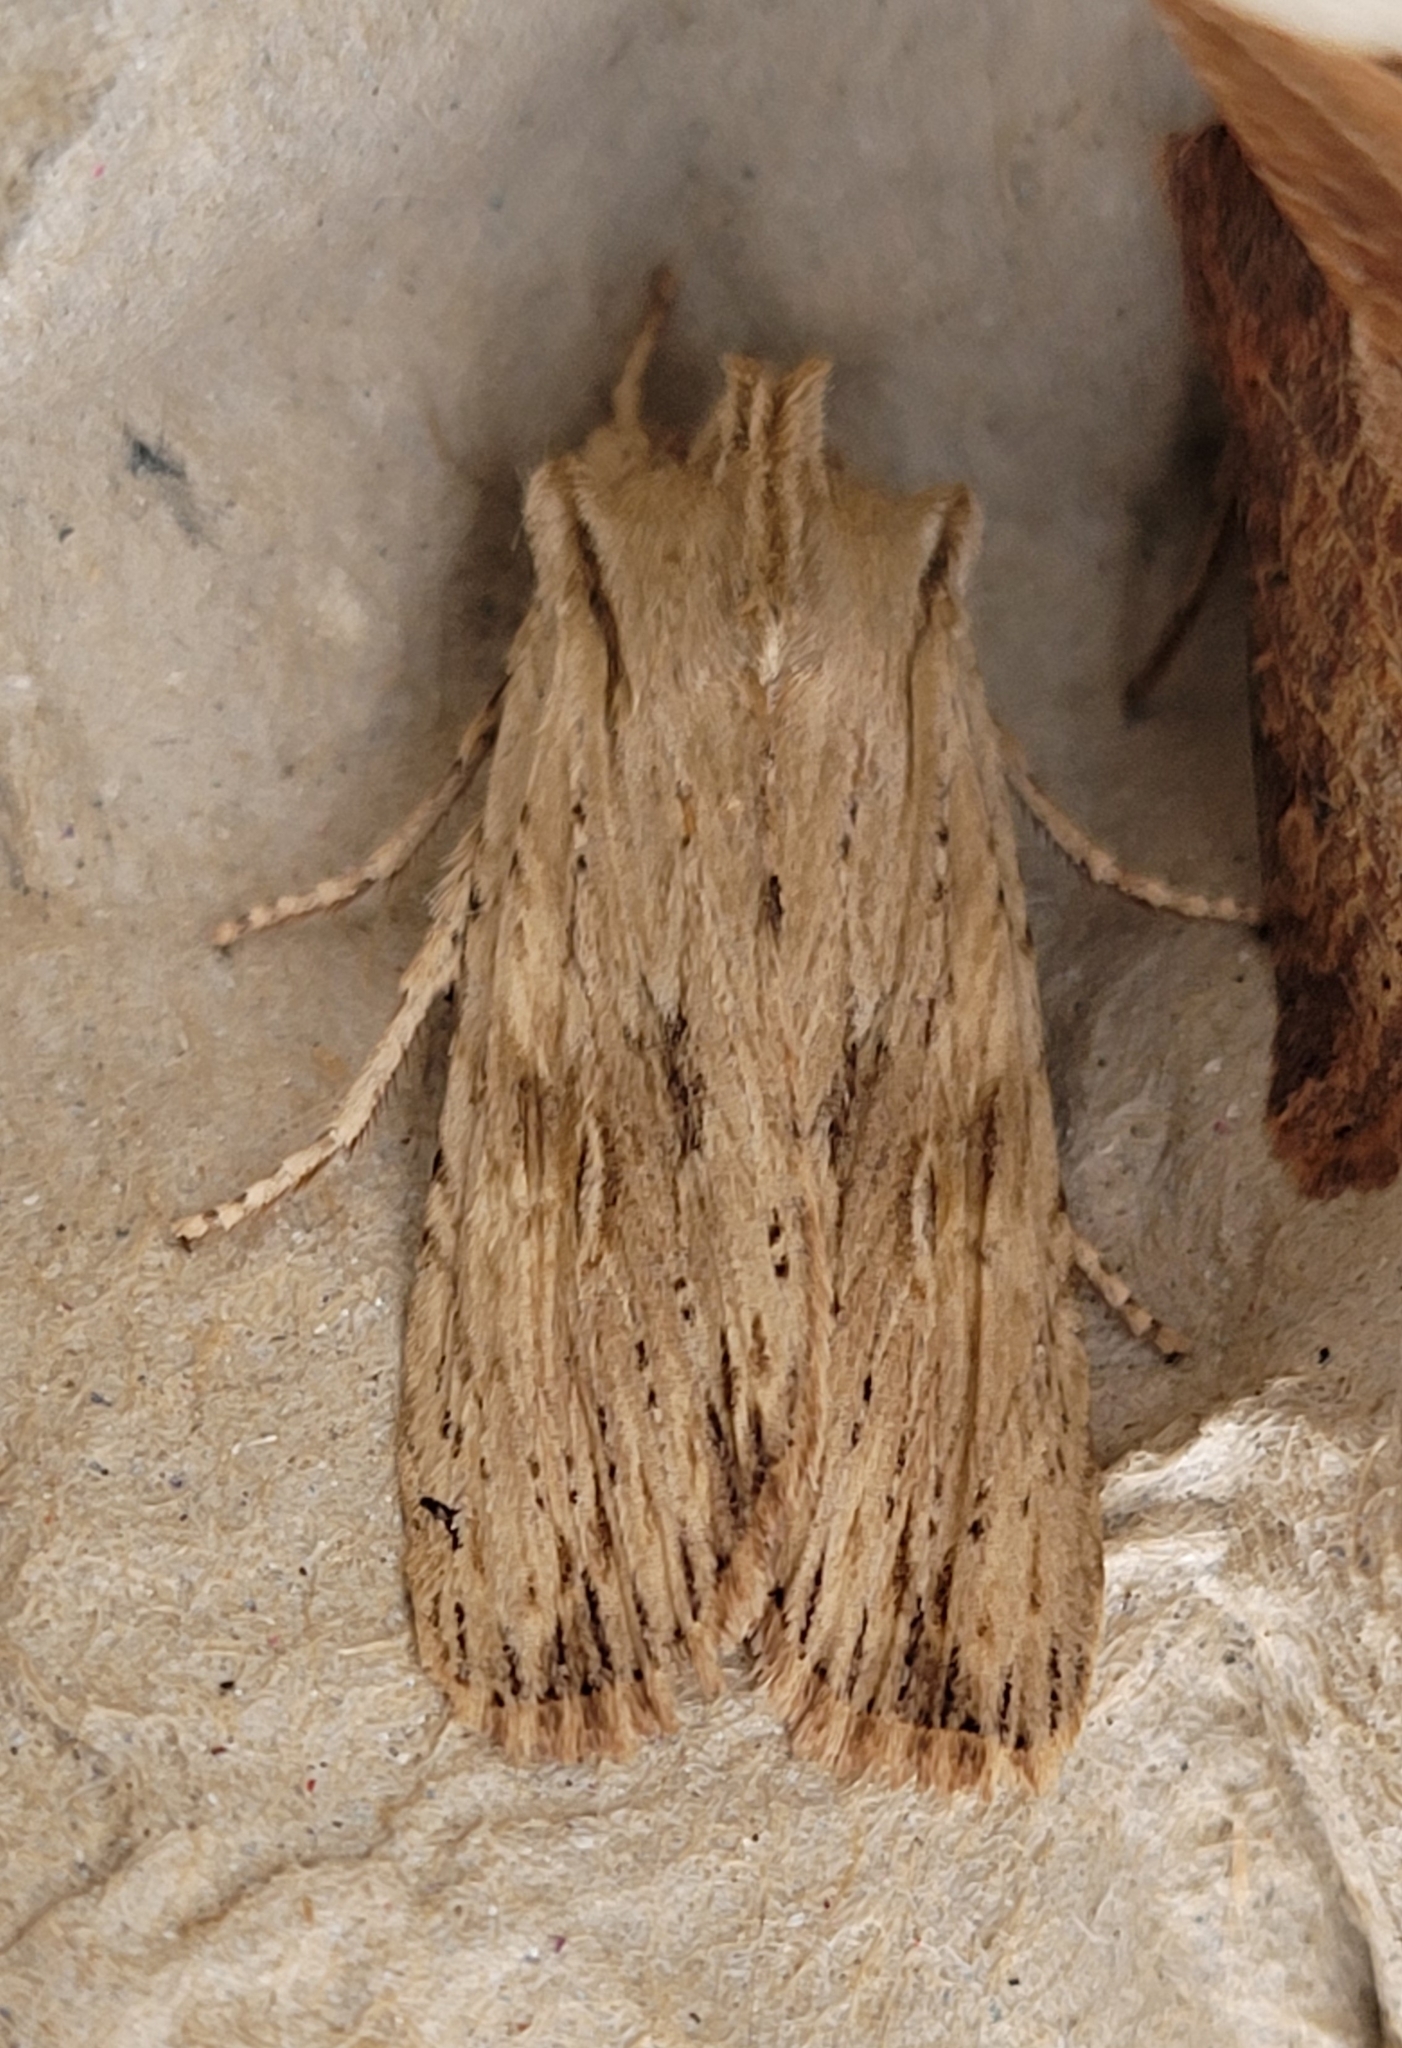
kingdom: Animalia
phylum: Arthropoda
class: Insecta
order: Lepidoptera
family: Noctuidae
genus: Lithophane
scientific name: Lithophane socia
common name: Pale pinion
